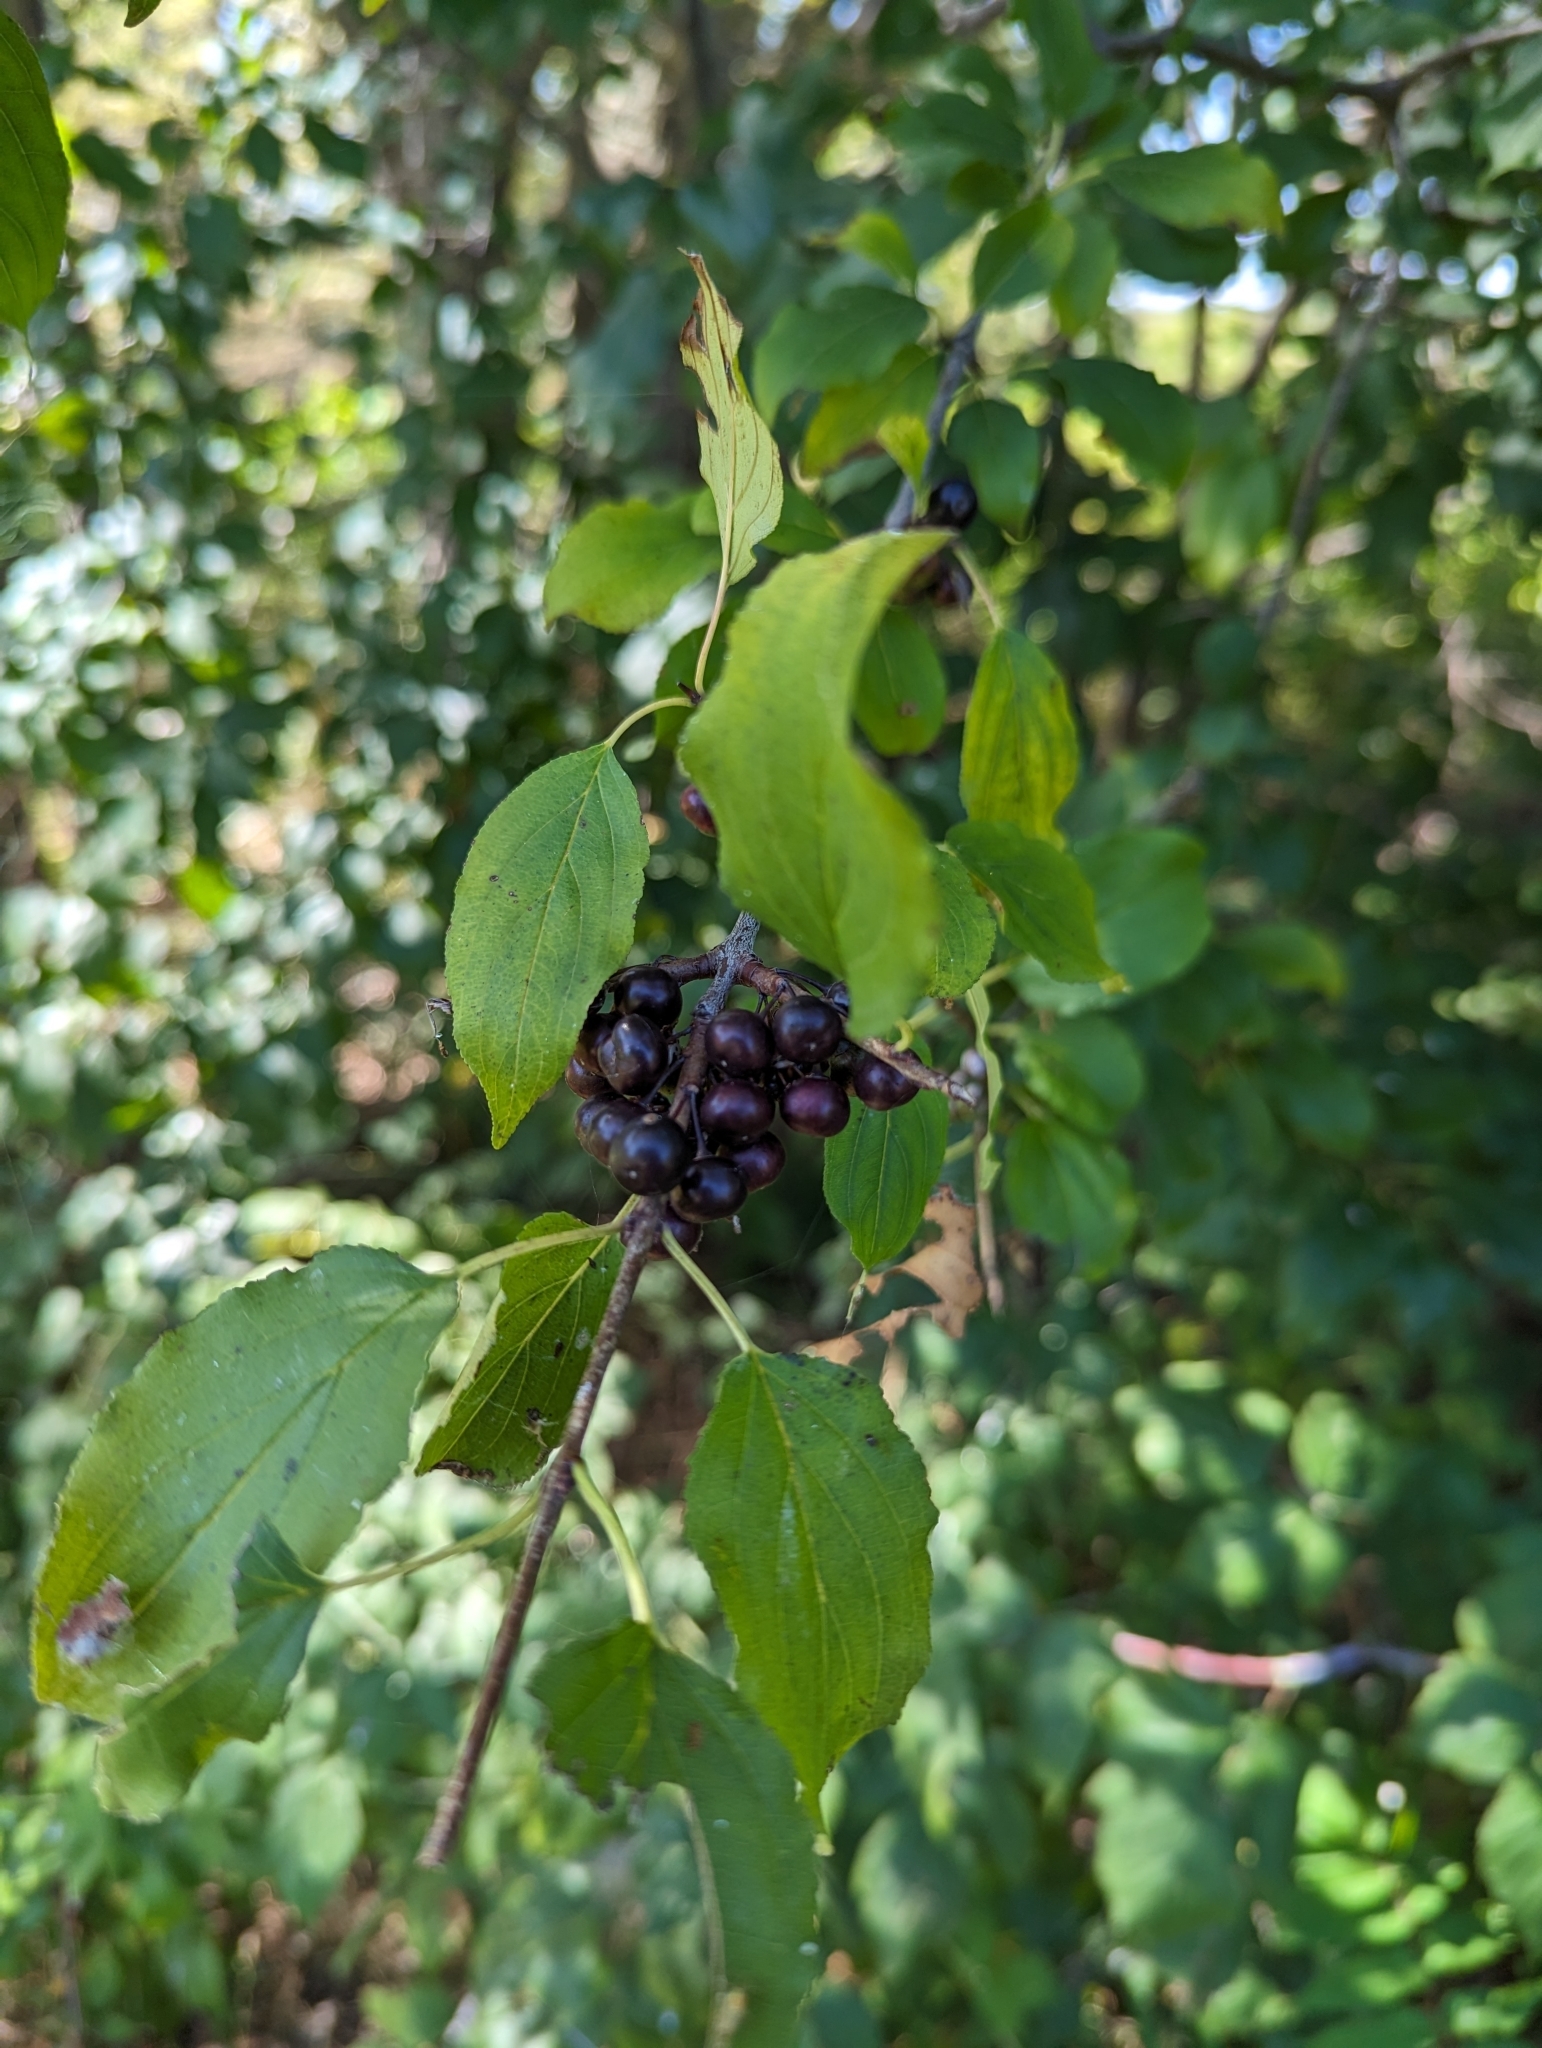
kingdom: Plantae
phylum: Tracheophyta
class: Magnoliopsida
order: Rosales
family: Rhamnaceae
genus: Rhamnus
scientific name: Rhamnus cathartica
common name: Common buckthorn
